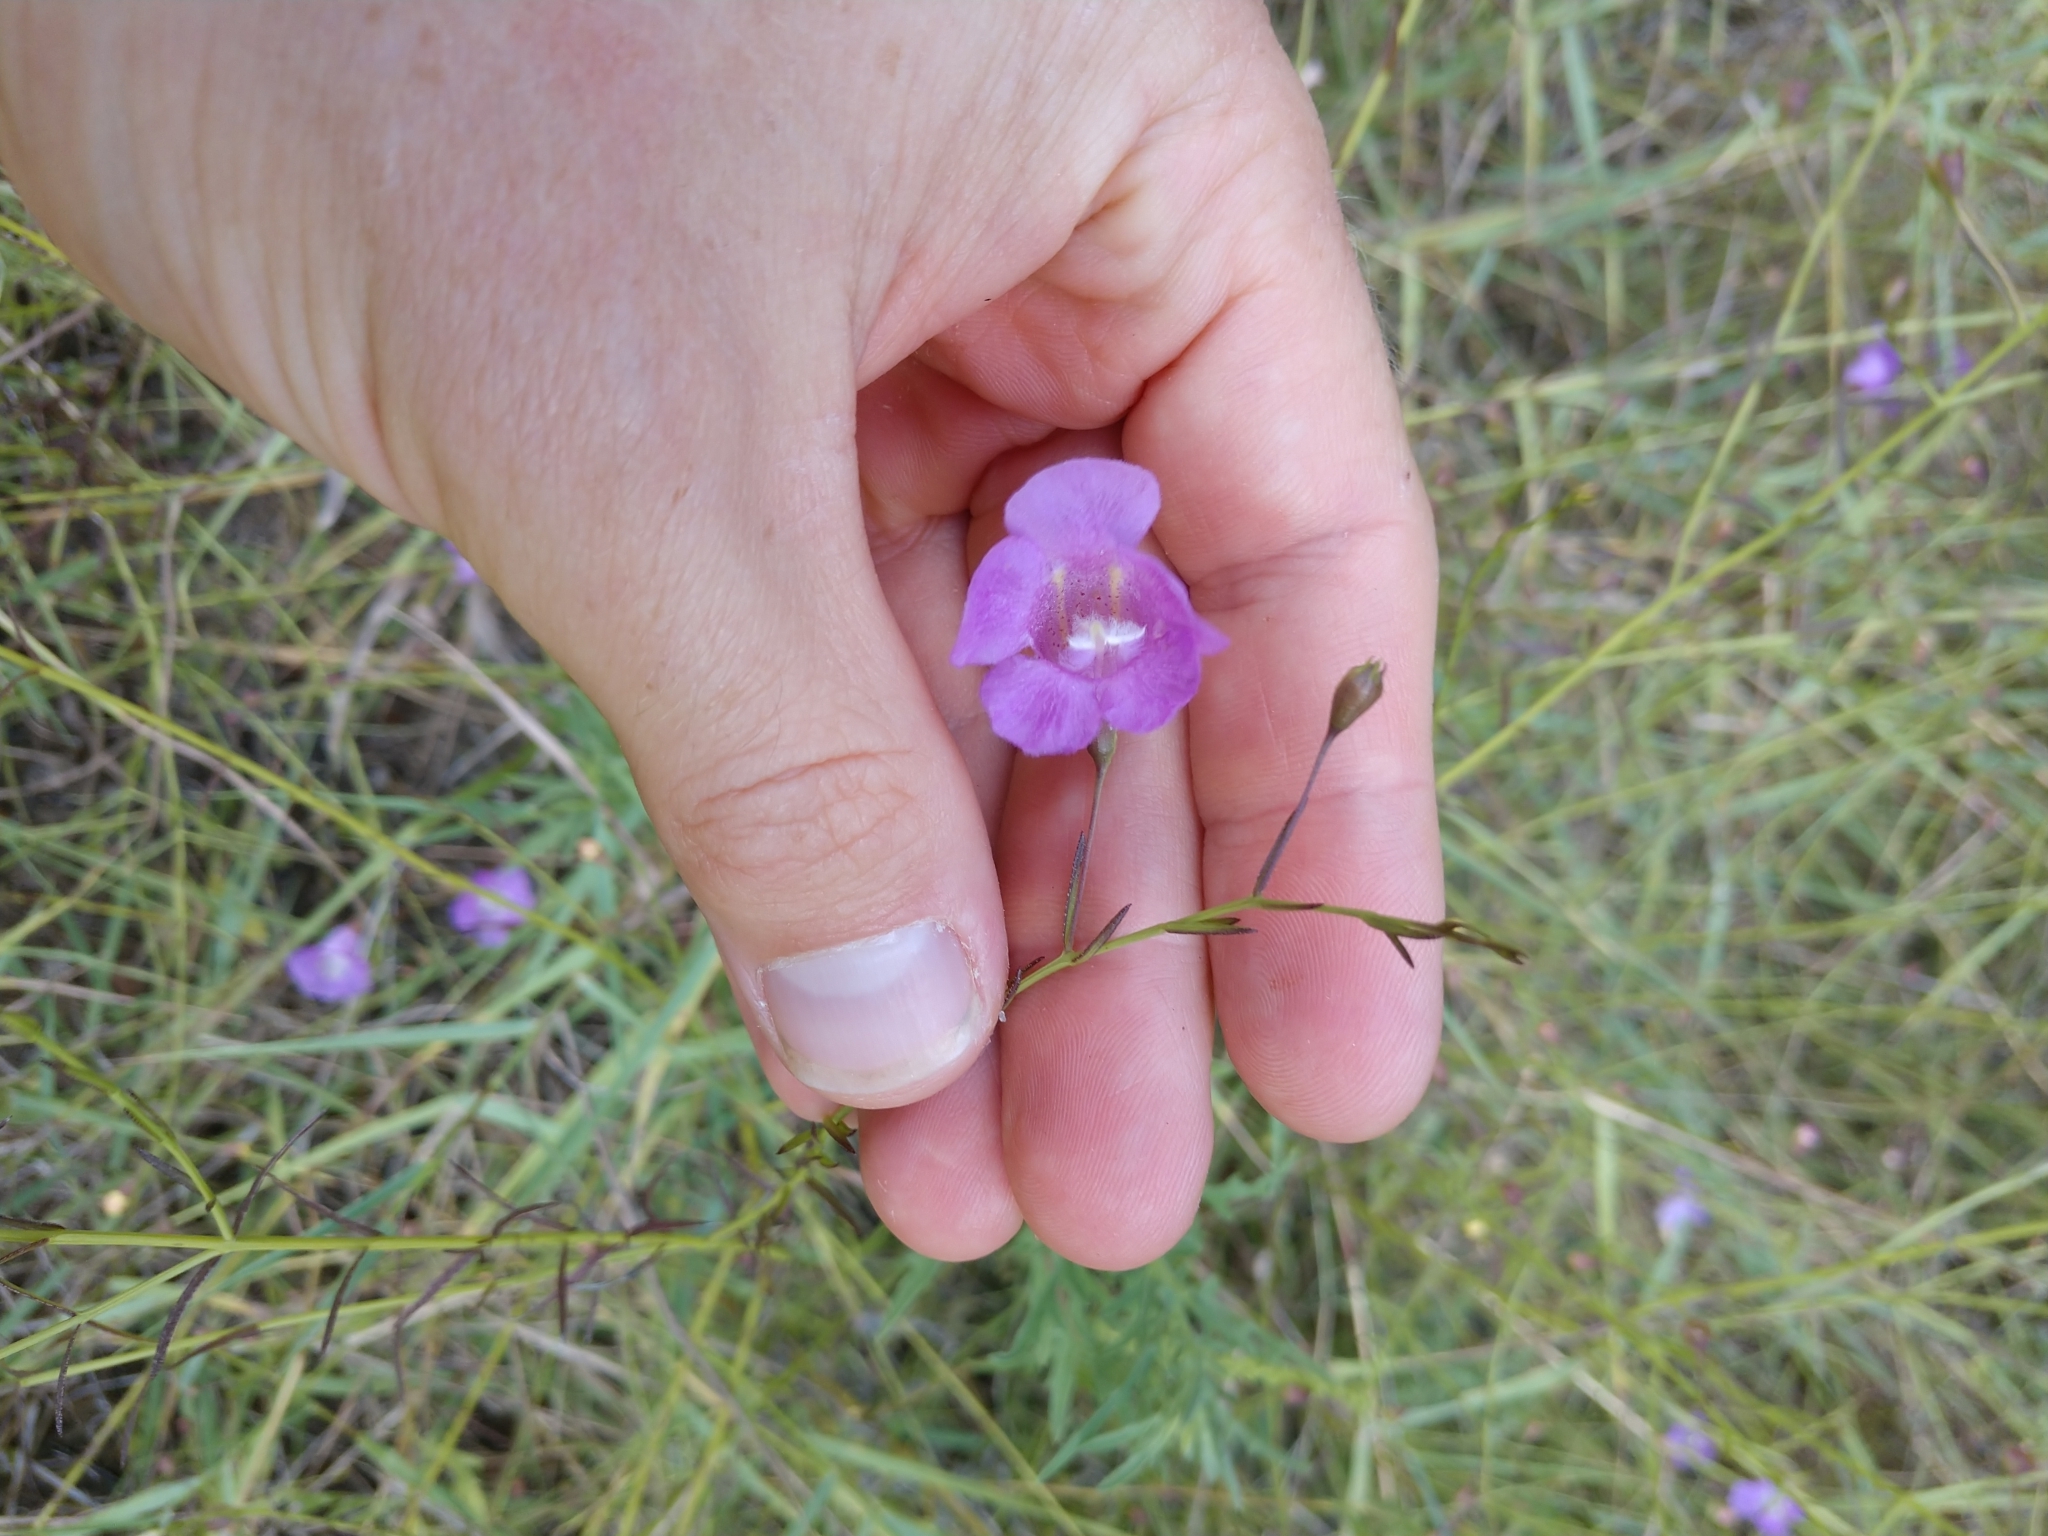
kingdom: Plantae
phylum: Tracheophyta
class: Magnoliopsida
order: Lamiales
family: Orobanchaceae
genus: Agalinis
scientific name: Agalinis strictifolia
